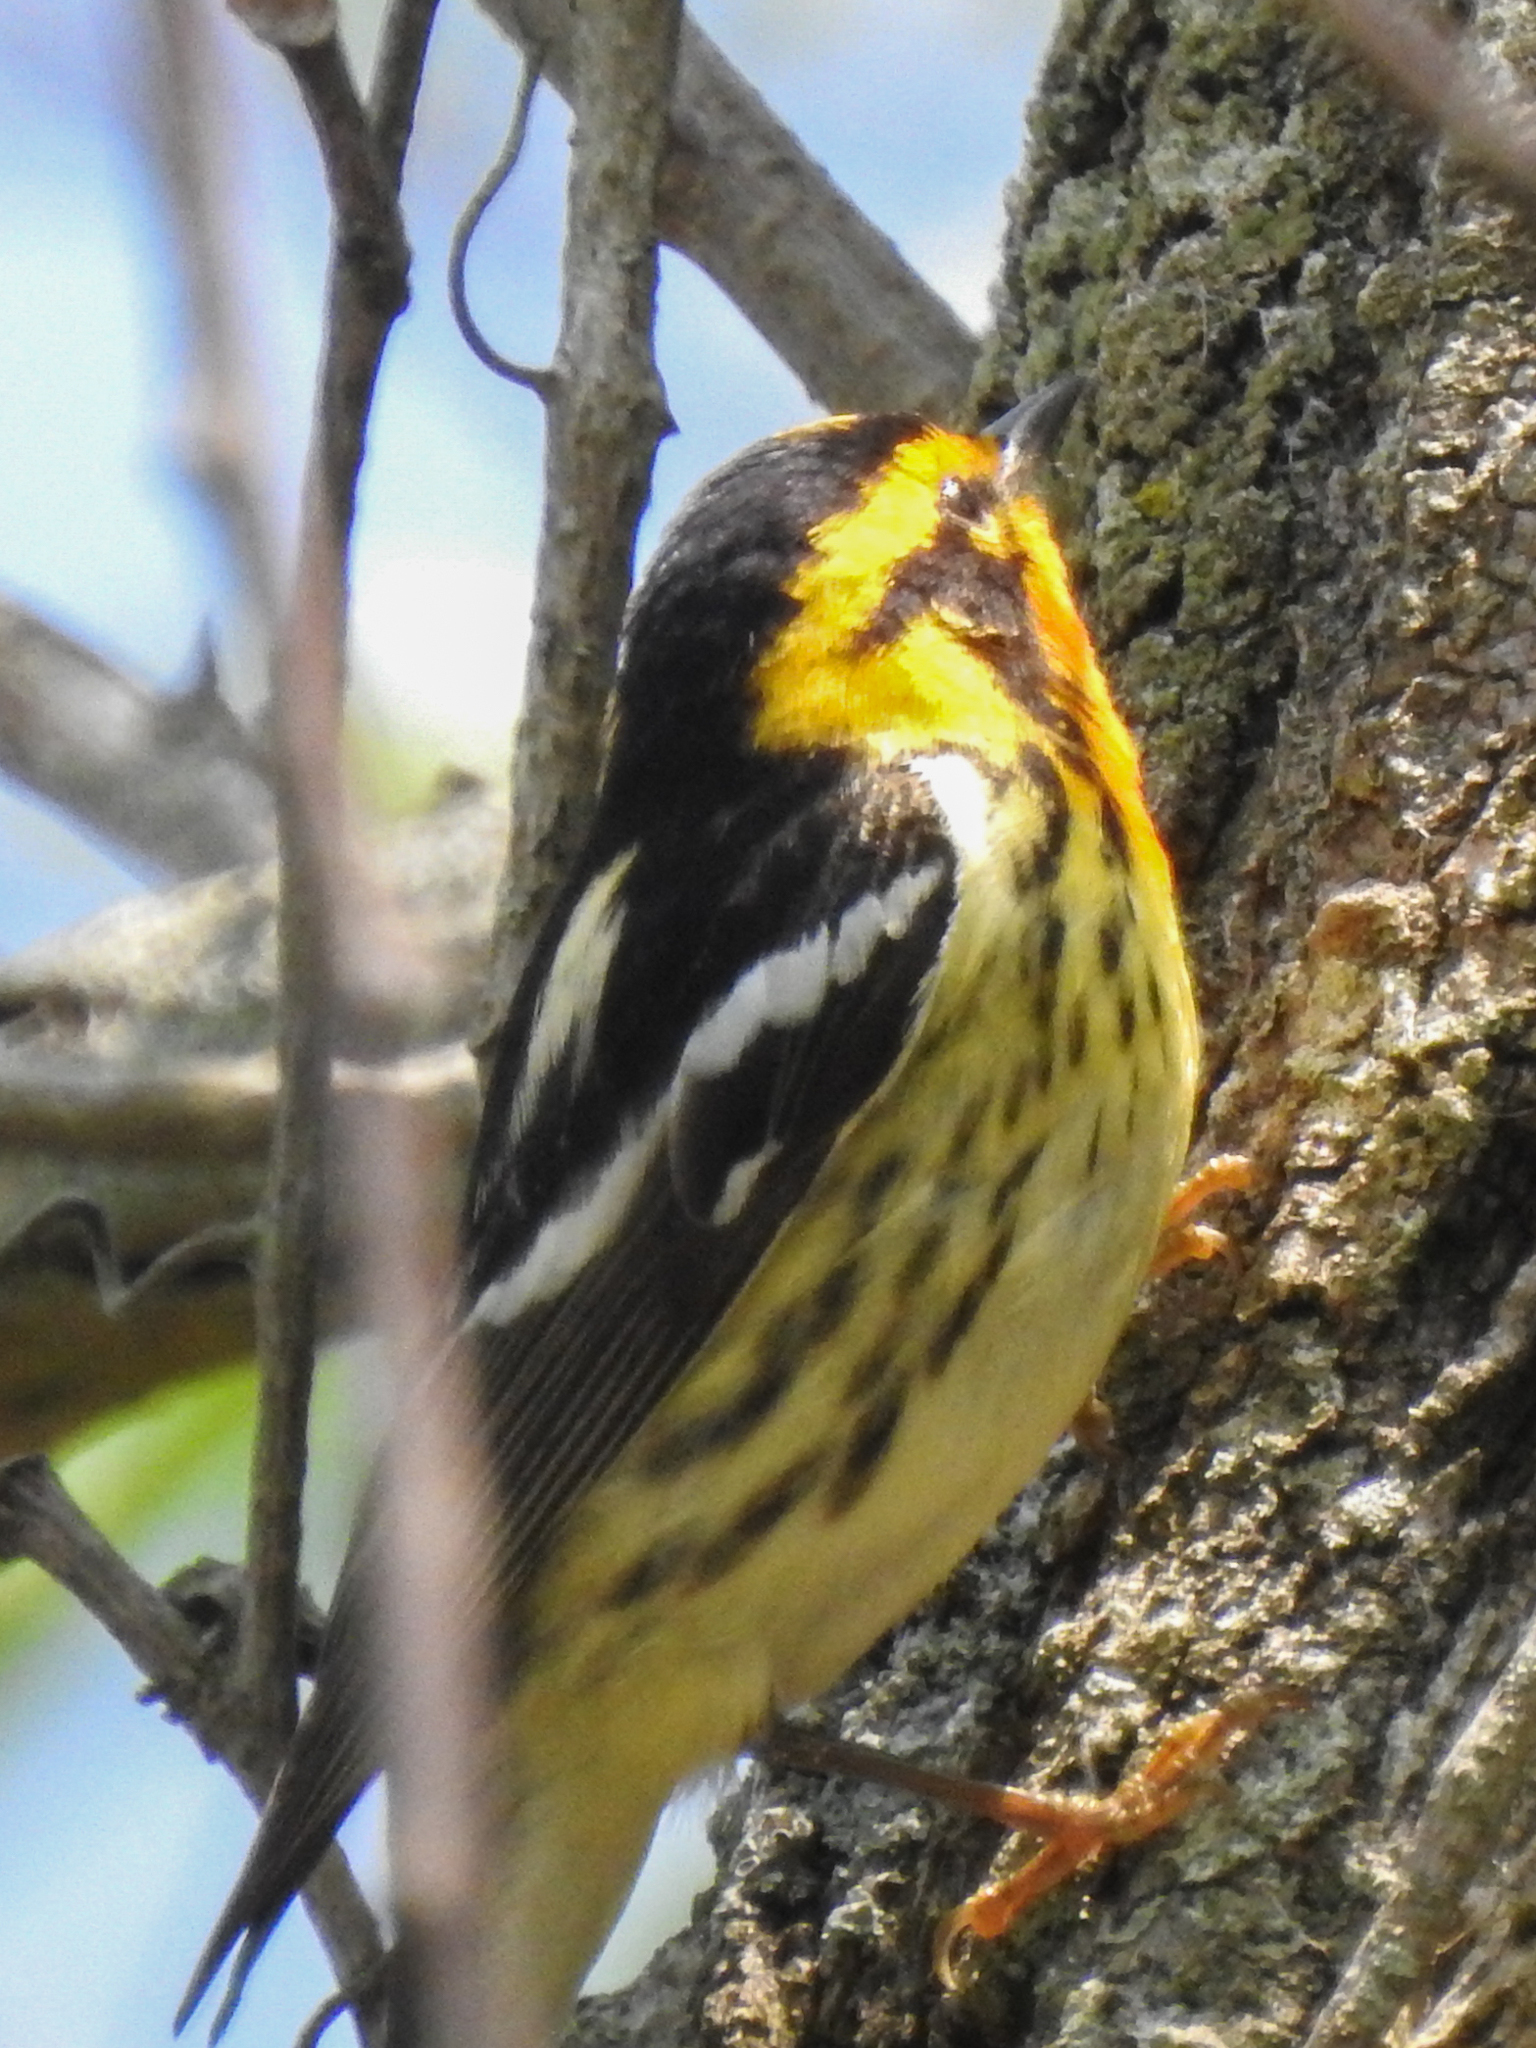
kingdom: Animalia
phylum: Chordata
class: Aves
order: Passeriformes
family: Parulidae
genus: Setophaga
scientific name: Setophaga fusca
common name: Blackburnian warbler
